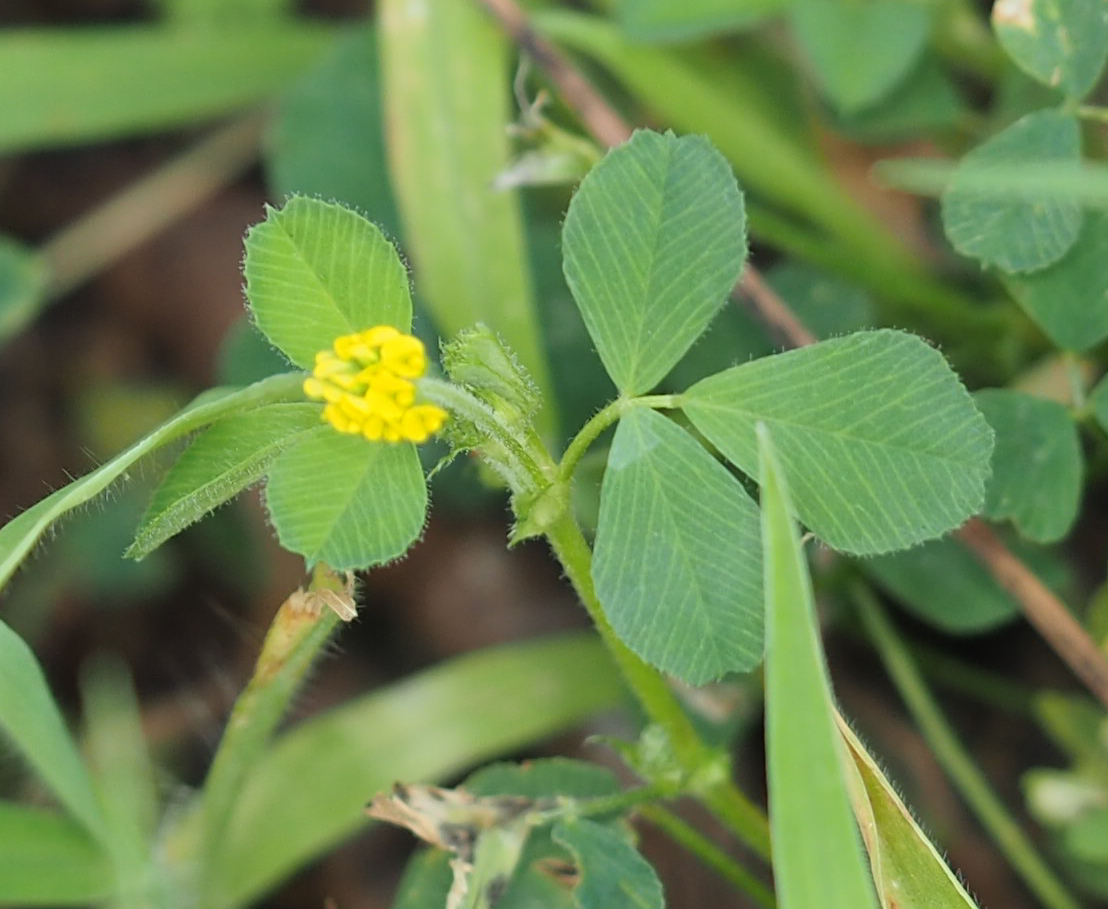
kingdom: Plantae
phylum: Tracheophyta
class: Magnoliopsida
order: Fabales
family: Fabaceae
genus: Medicago
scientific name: Medicago lupulina
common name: Black medick
